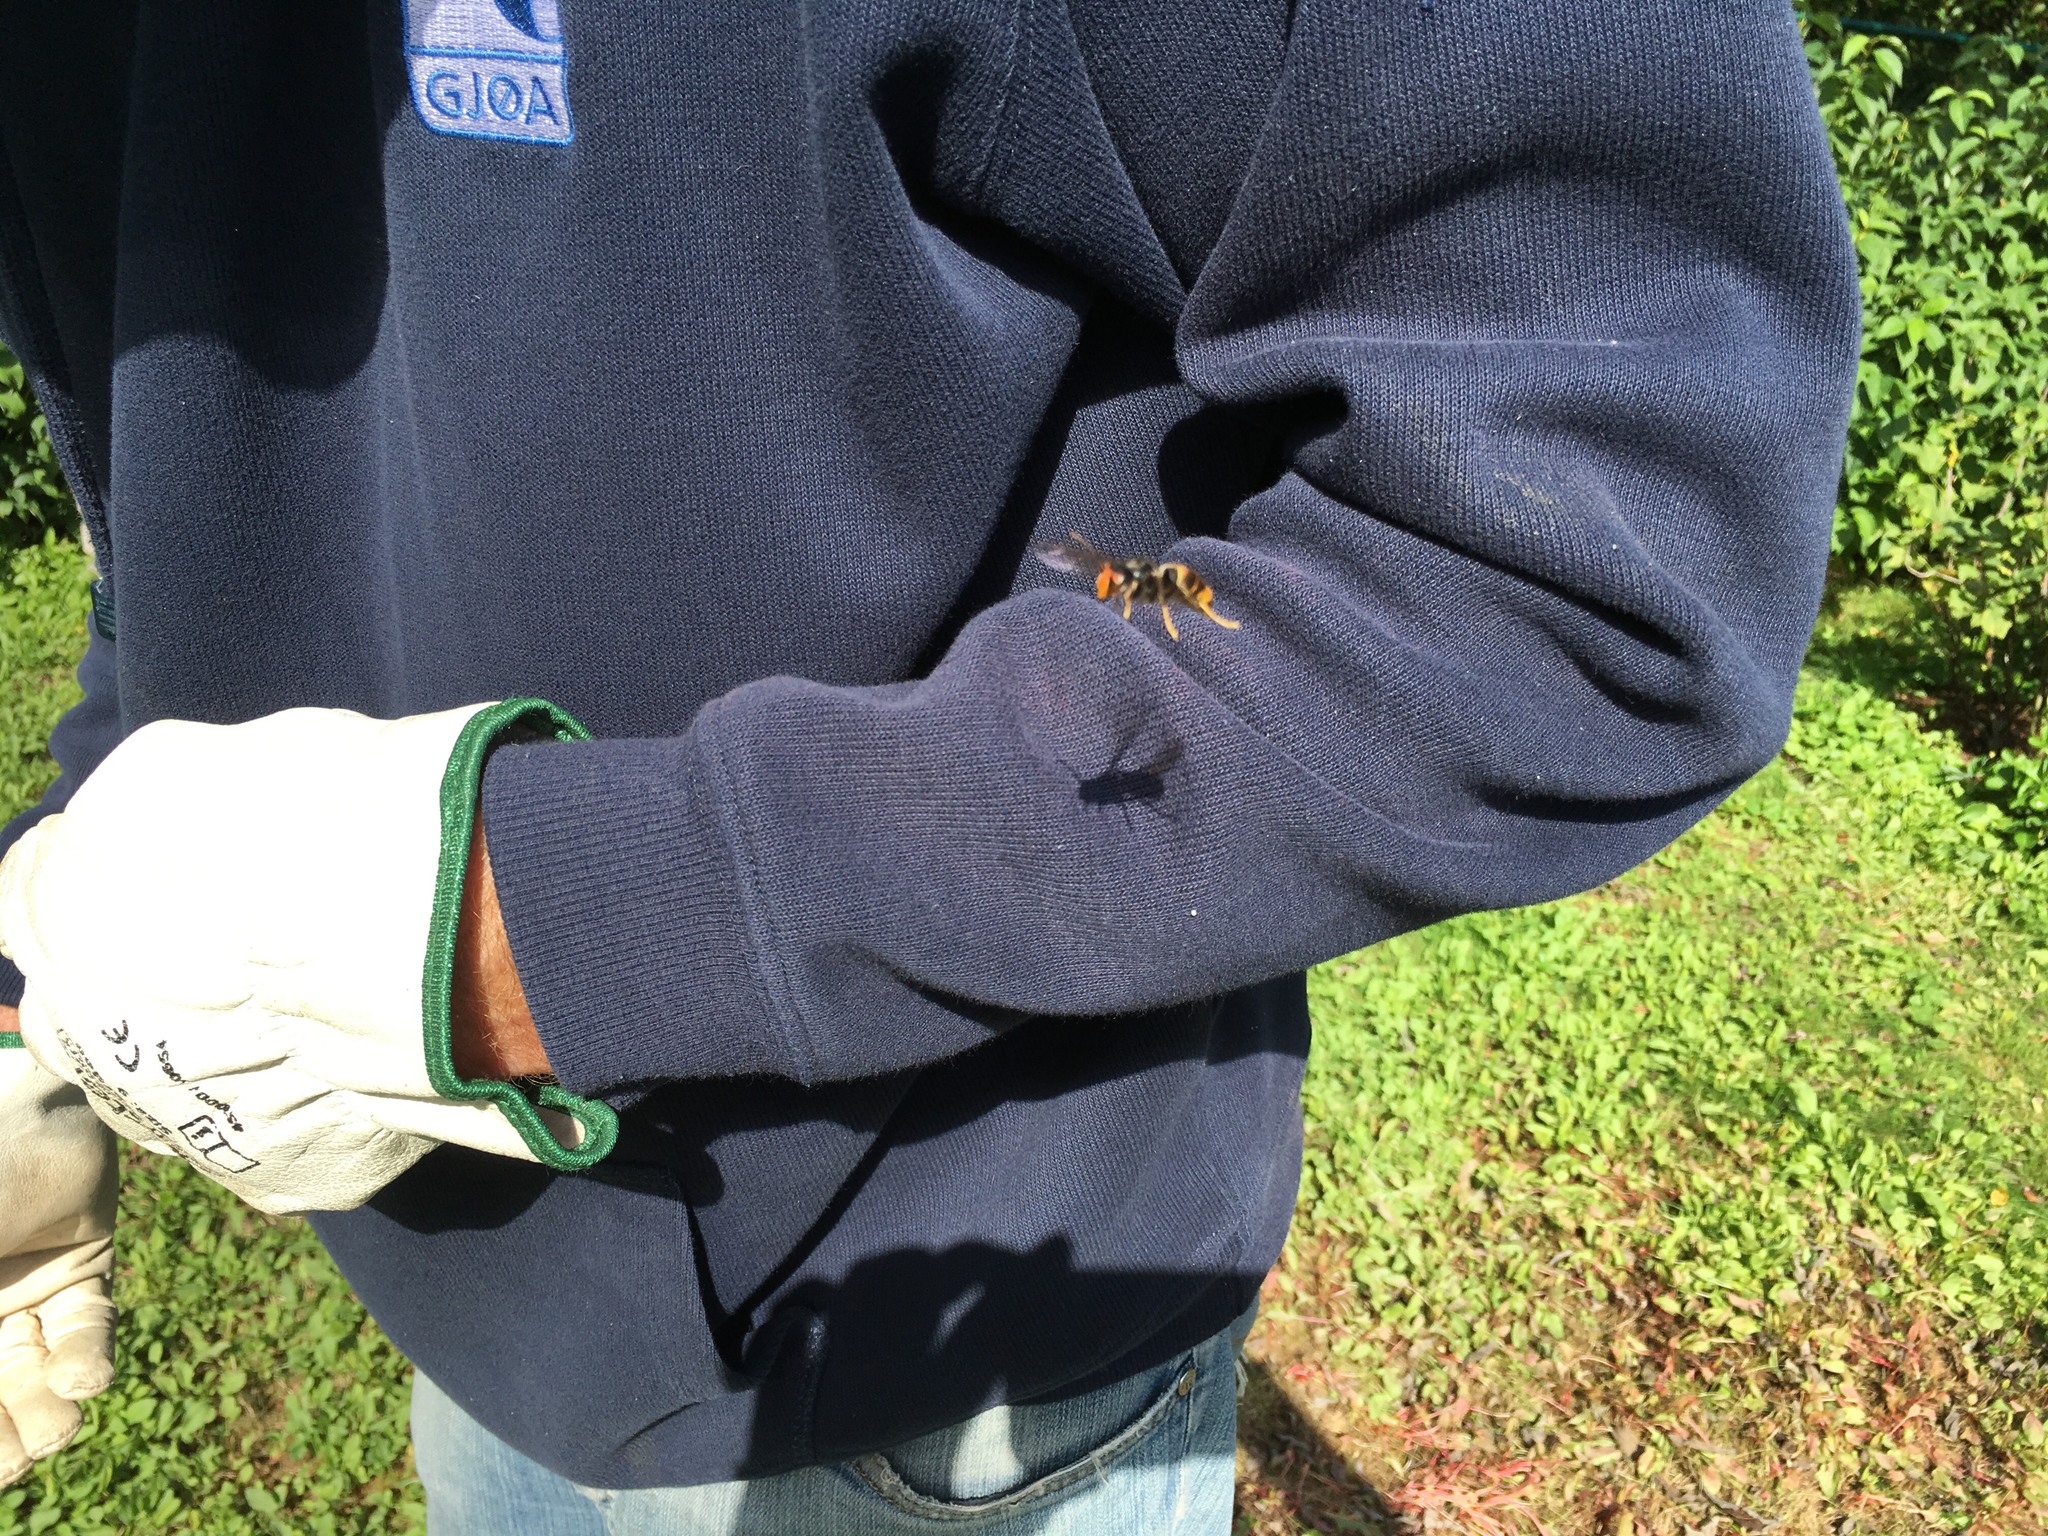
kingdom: Animalia
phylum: Arthropoda
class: Insecta
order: Hymenoptera
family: Vespidae
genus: Vespa
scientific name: Vespa velutina
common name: Asian hornet
